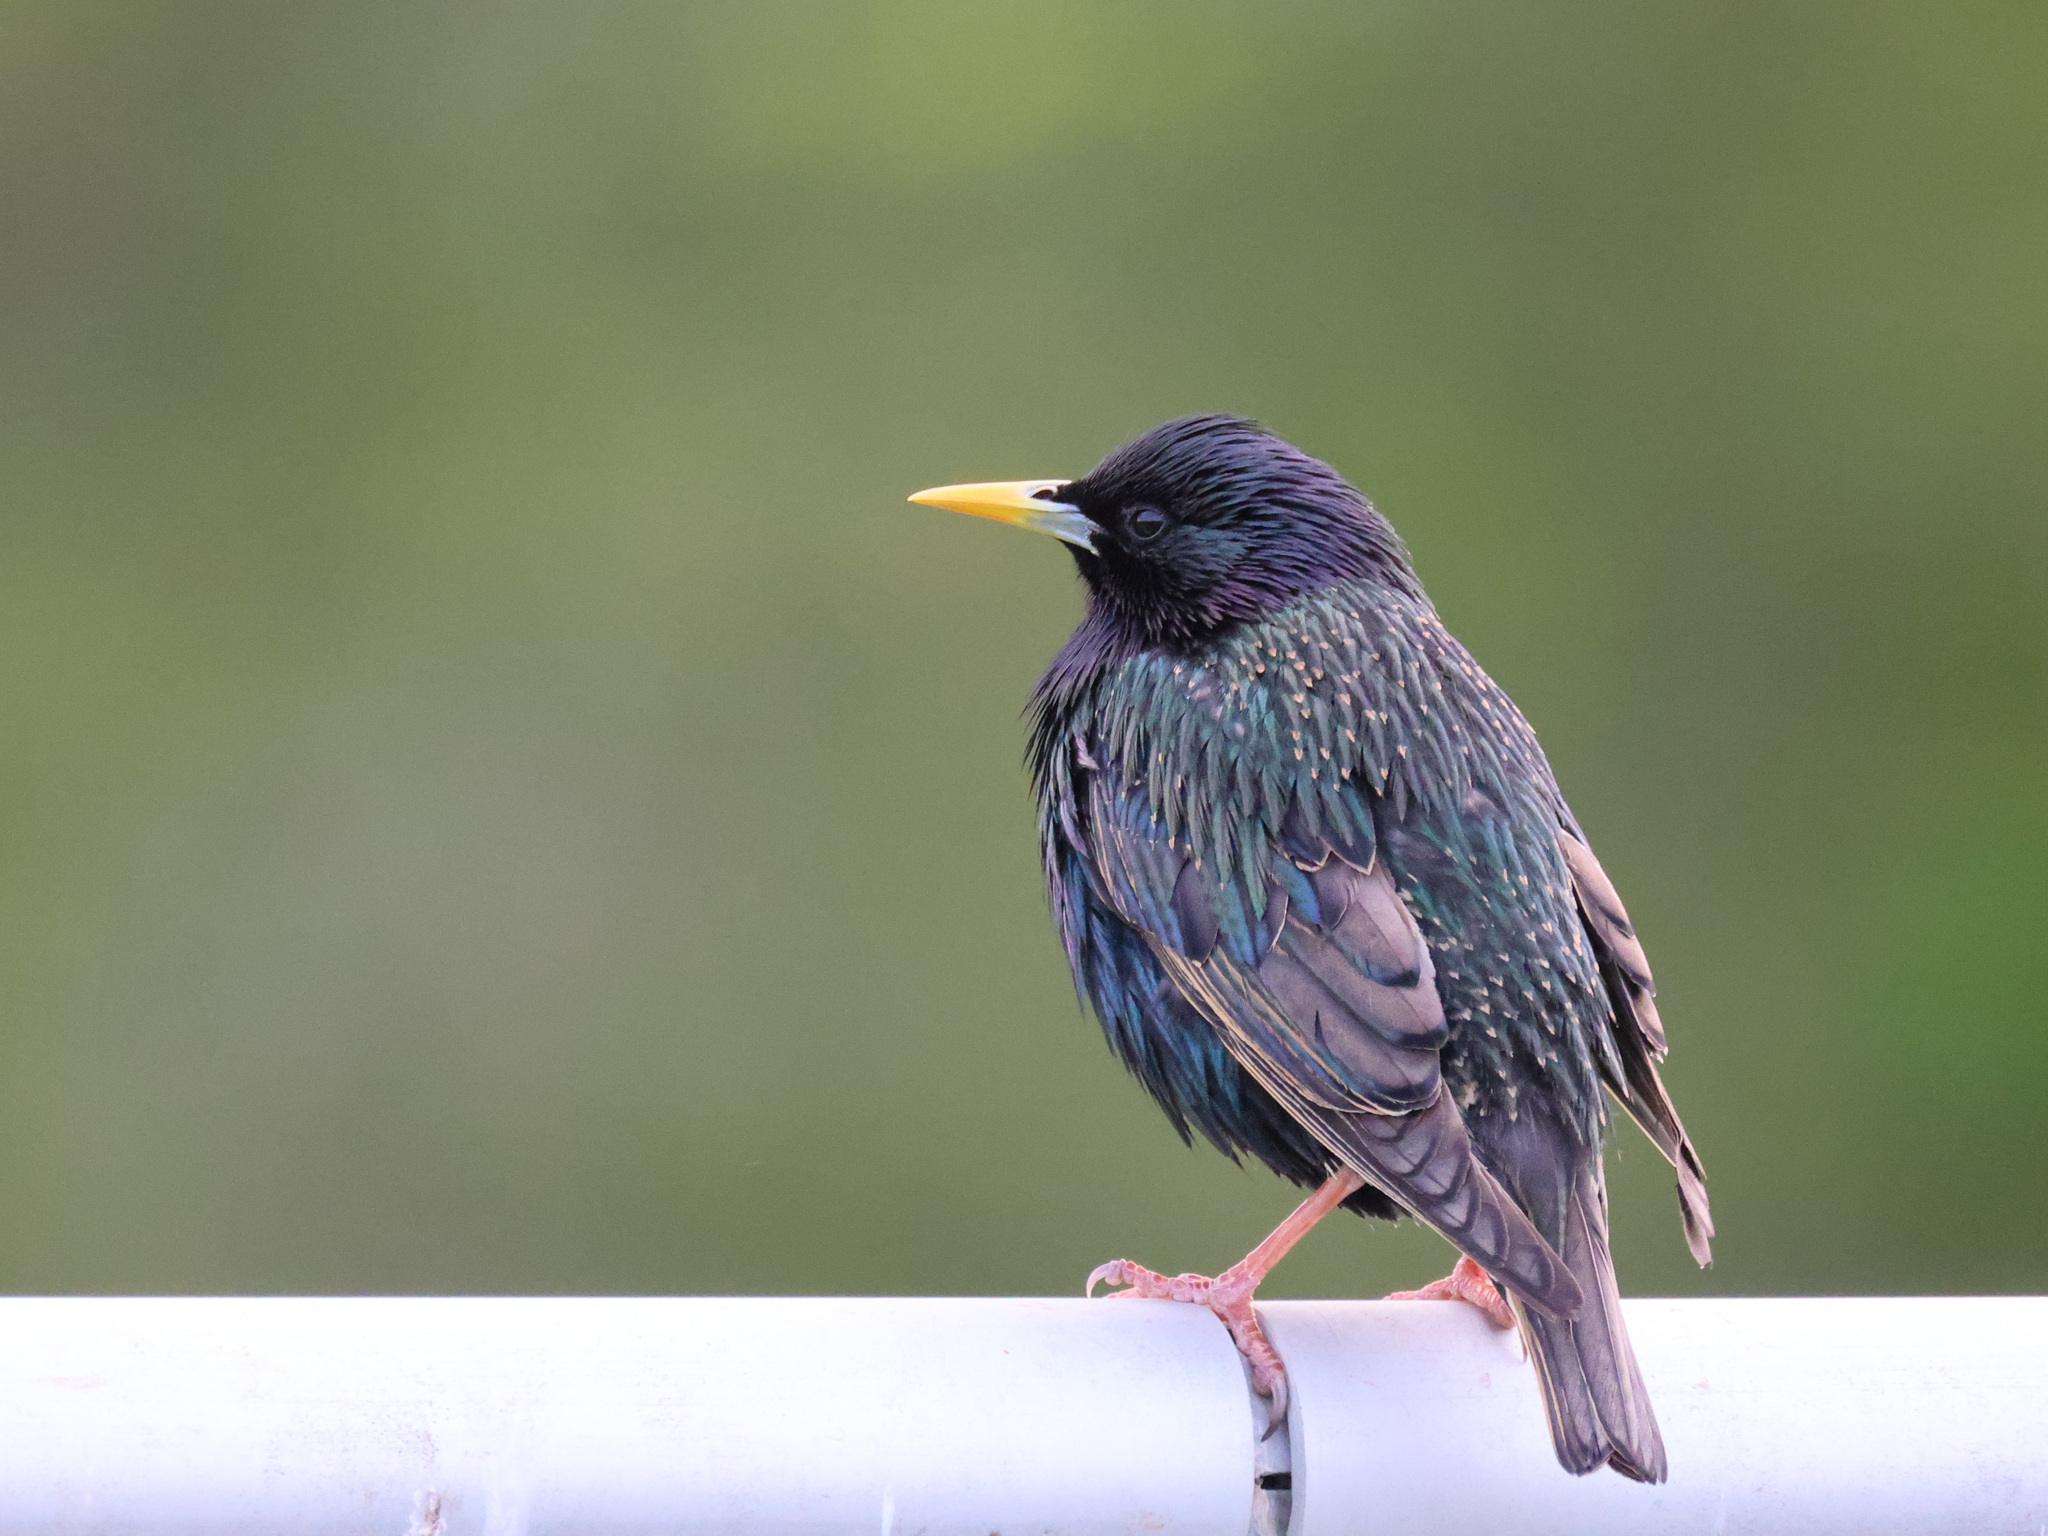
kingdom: Animalia
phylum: Chordata
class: Aves
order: Passeriformes
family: Sturnidae
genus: Sturnus
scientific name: Sturnus vulgaris
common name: Common starling
